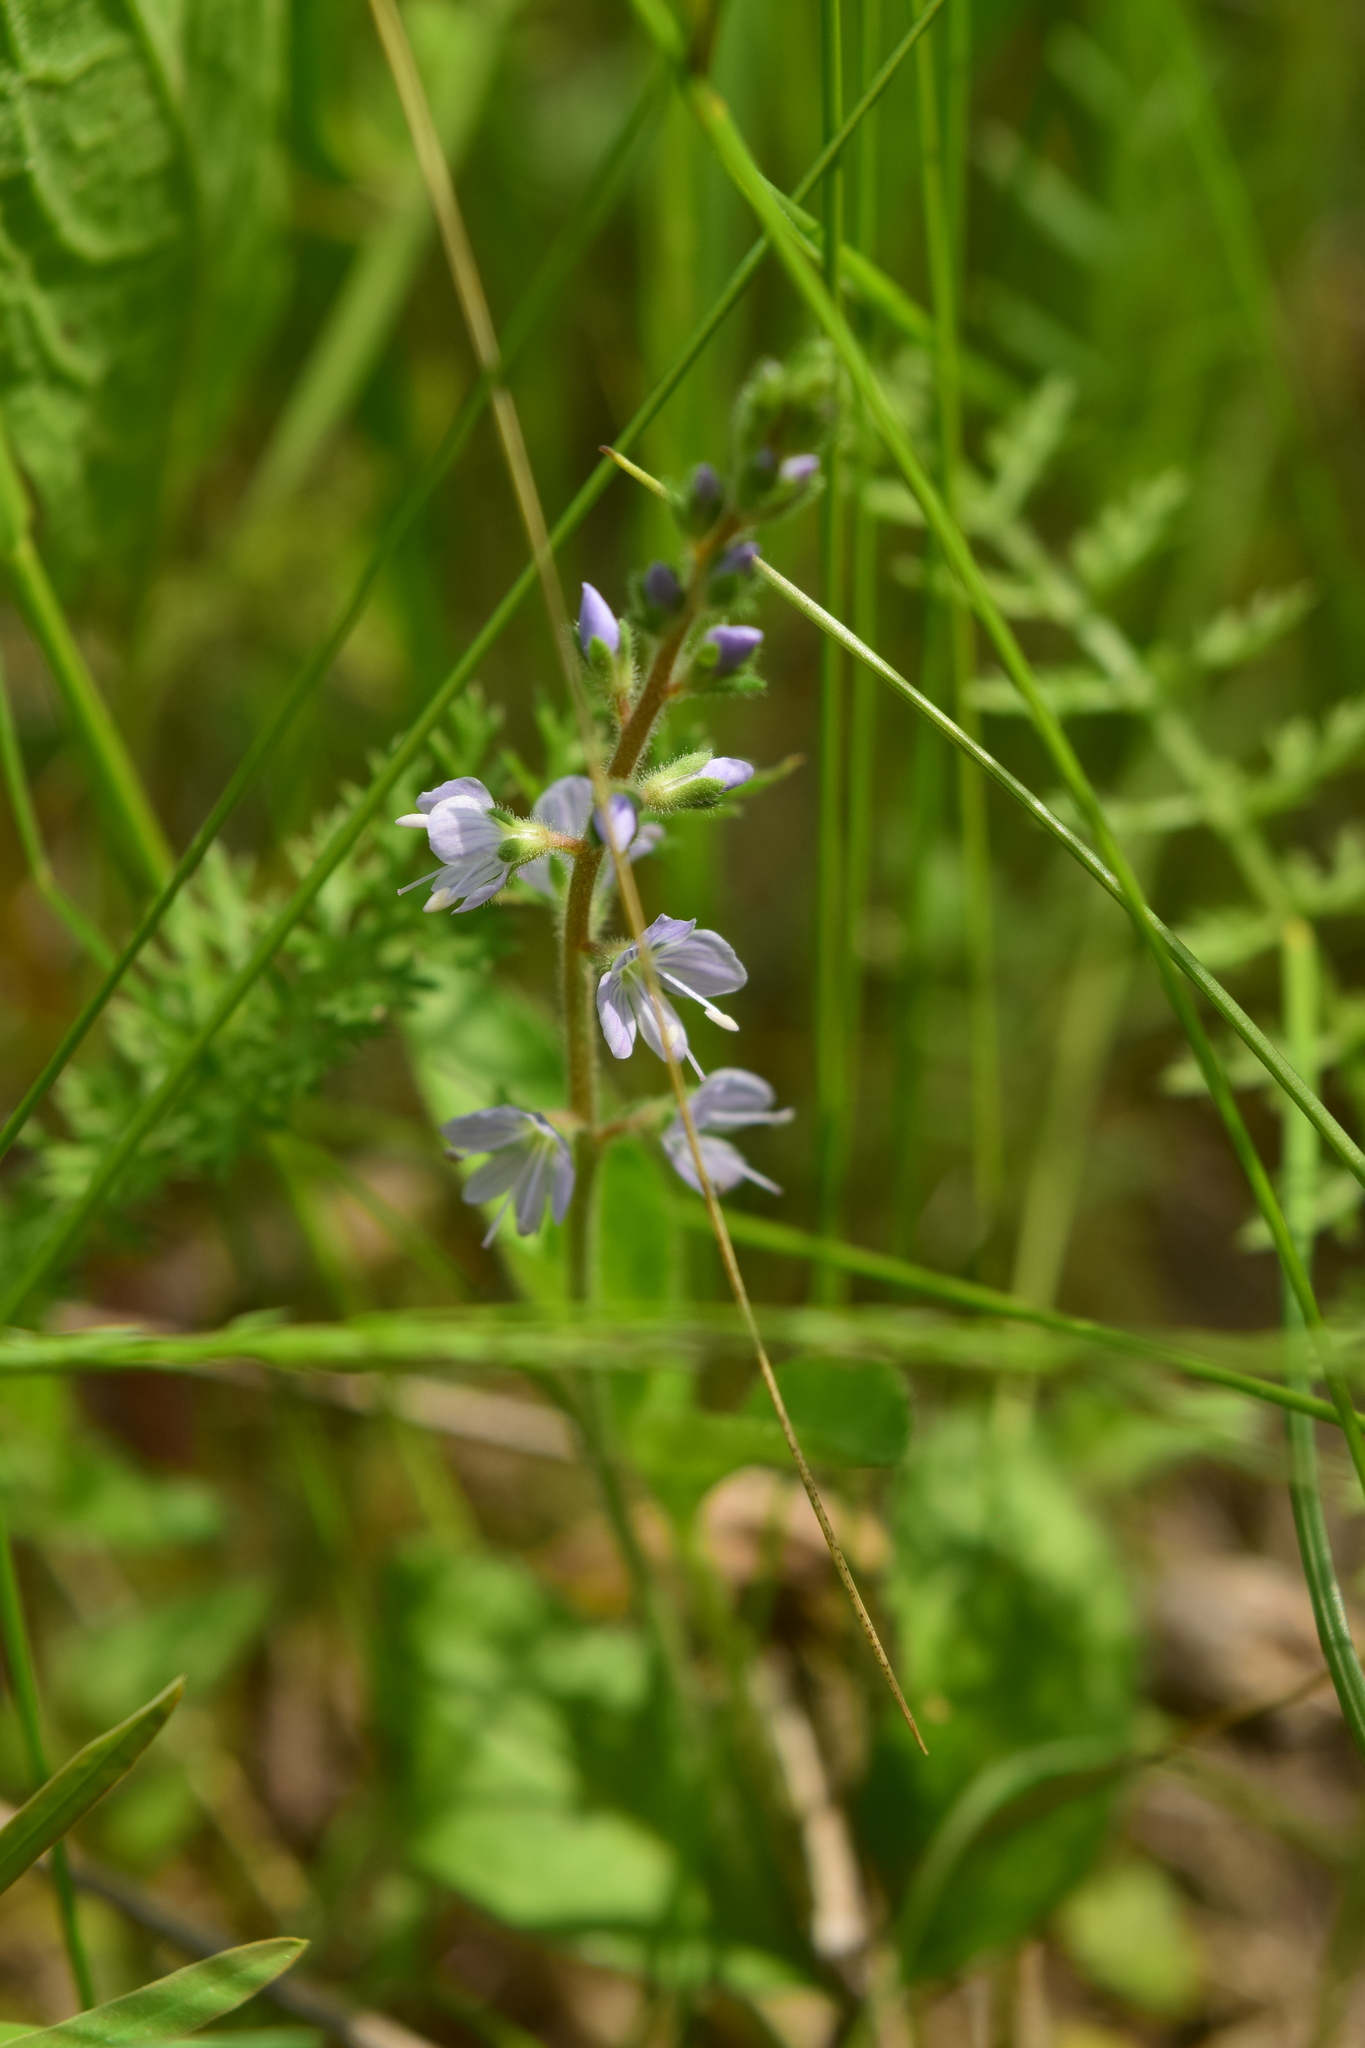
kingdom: Plantae
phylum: Tracheophyta
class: Magnoliopsida
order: Lamiales
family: Plantaginaceae
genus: Veronica
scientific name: Veronica officinalis
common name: Common speedwell
